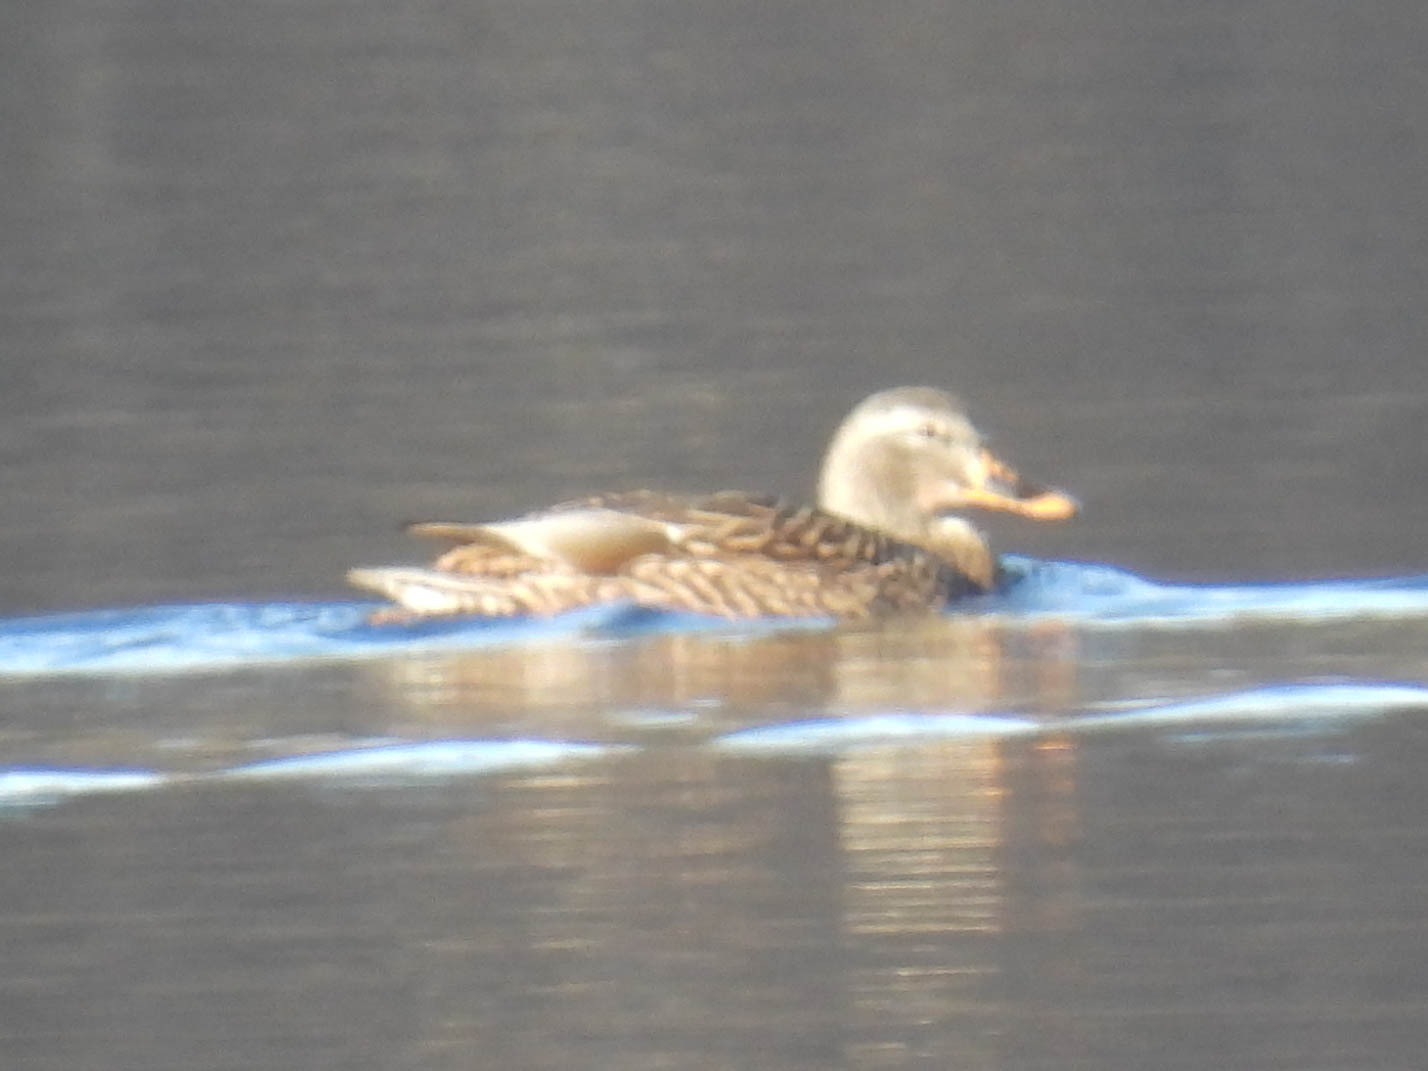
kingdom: Animalia
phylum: Chordata
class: Aves
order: Anseriformes
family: Anatidae
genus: Anas
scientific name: Anas platyrhynchos
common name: Mallard
